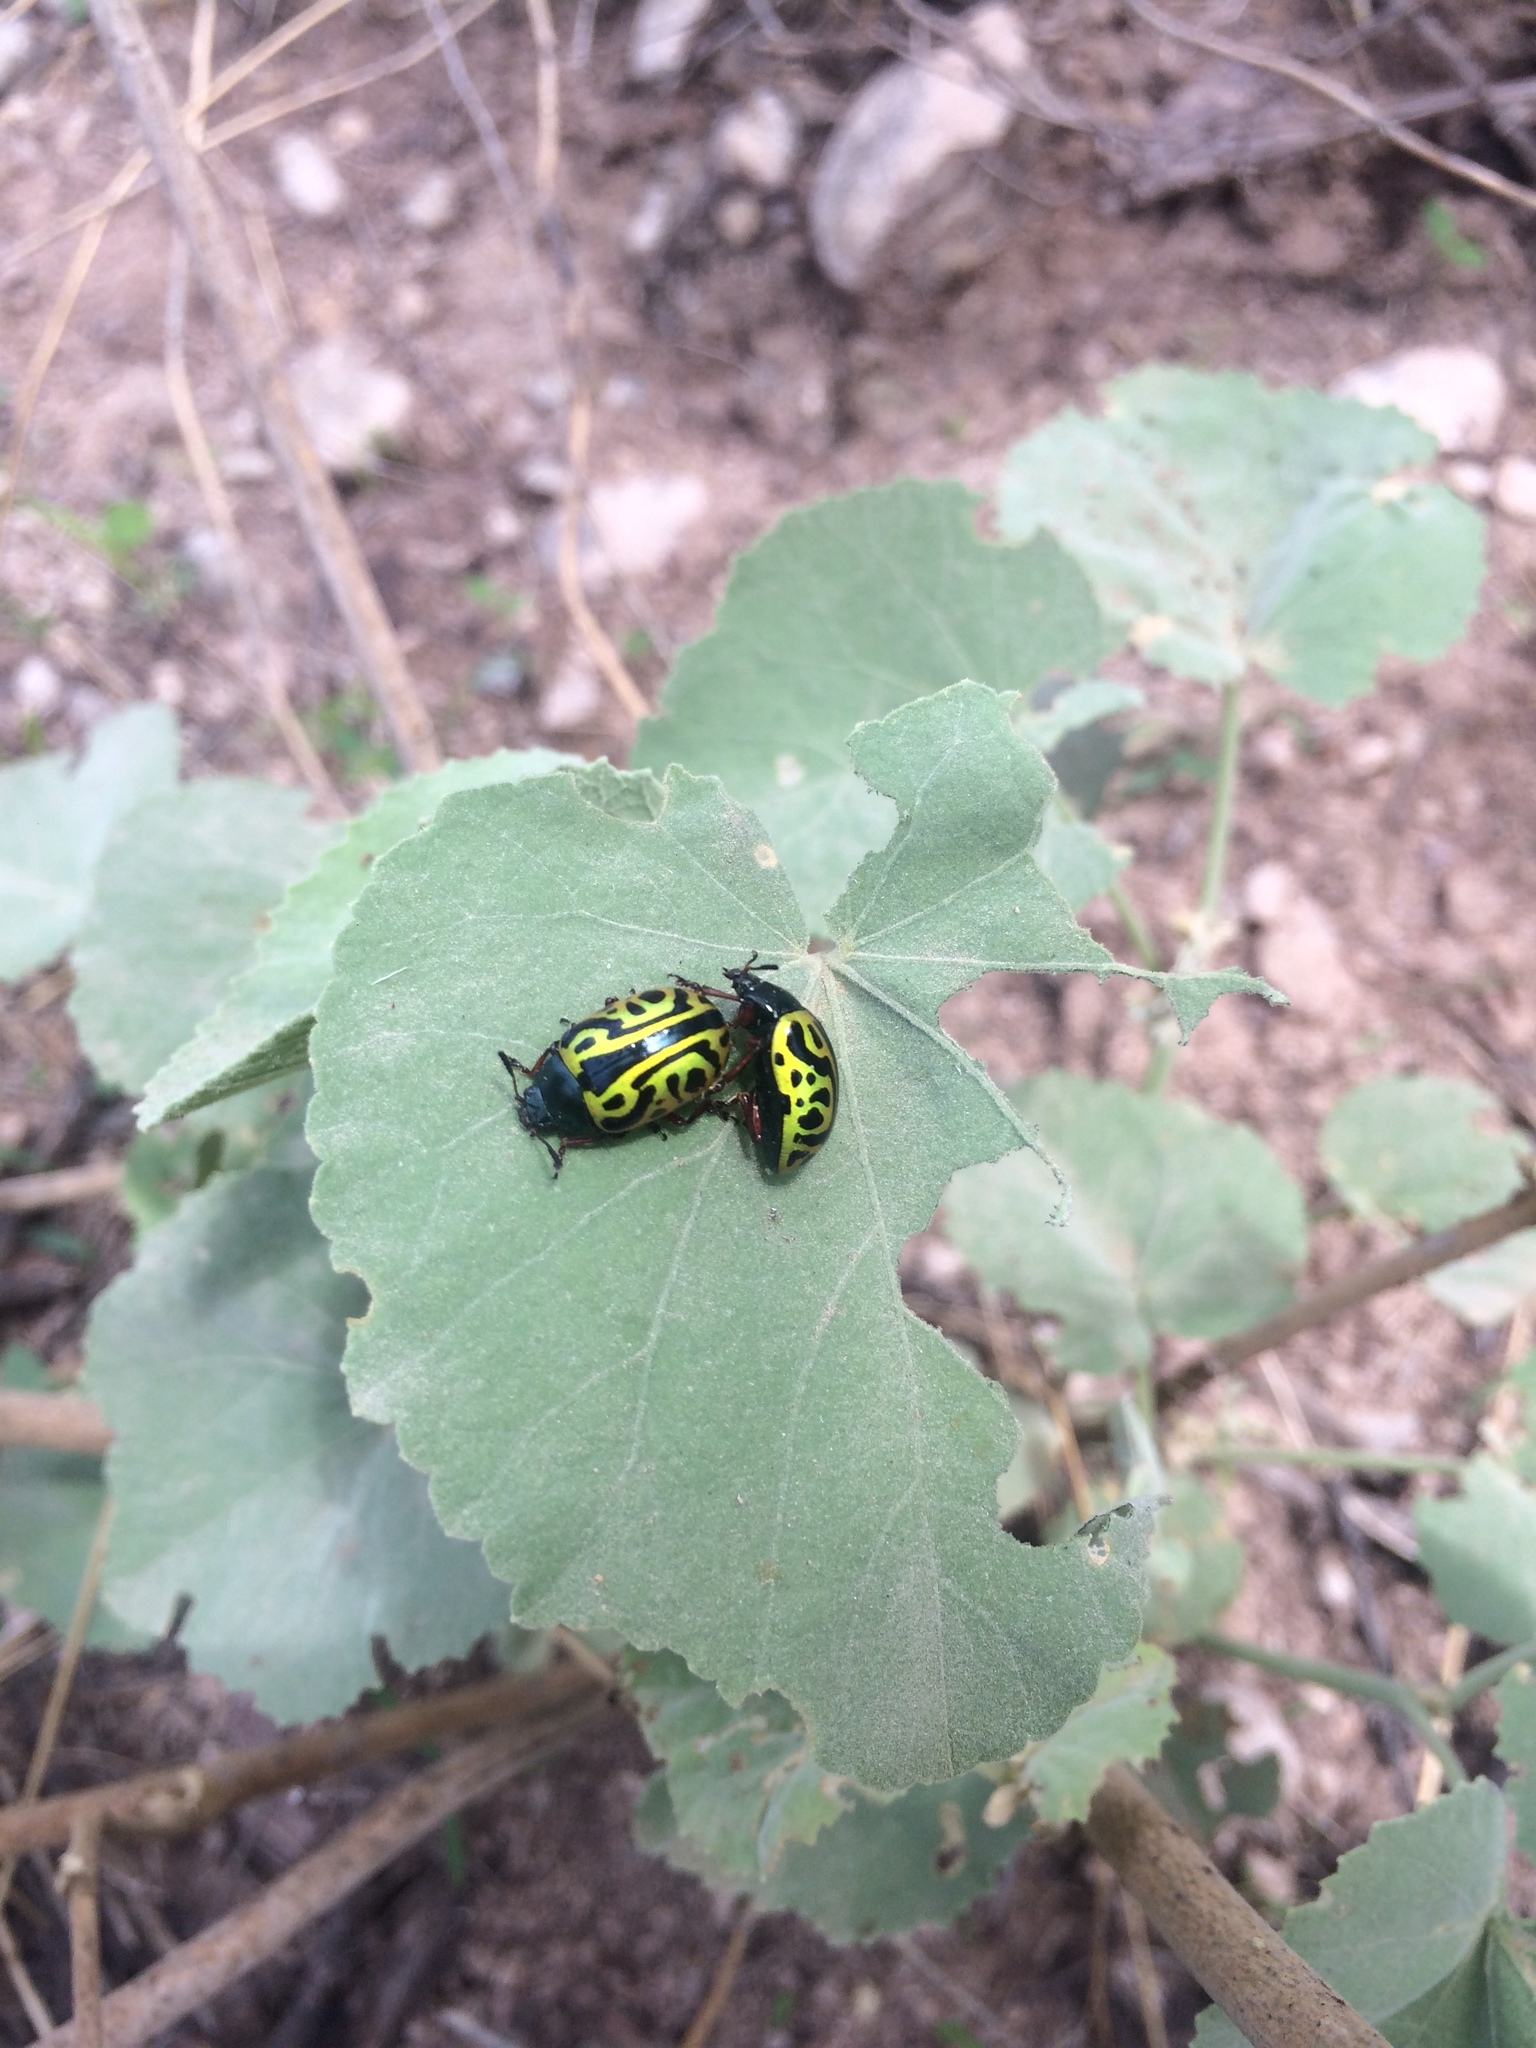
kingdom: Animalia
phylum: Arthropoda
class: Insecta
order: Coleoptera
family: Chrysomelidae
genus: Calligrapha
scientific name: Calligrapha serpentina
